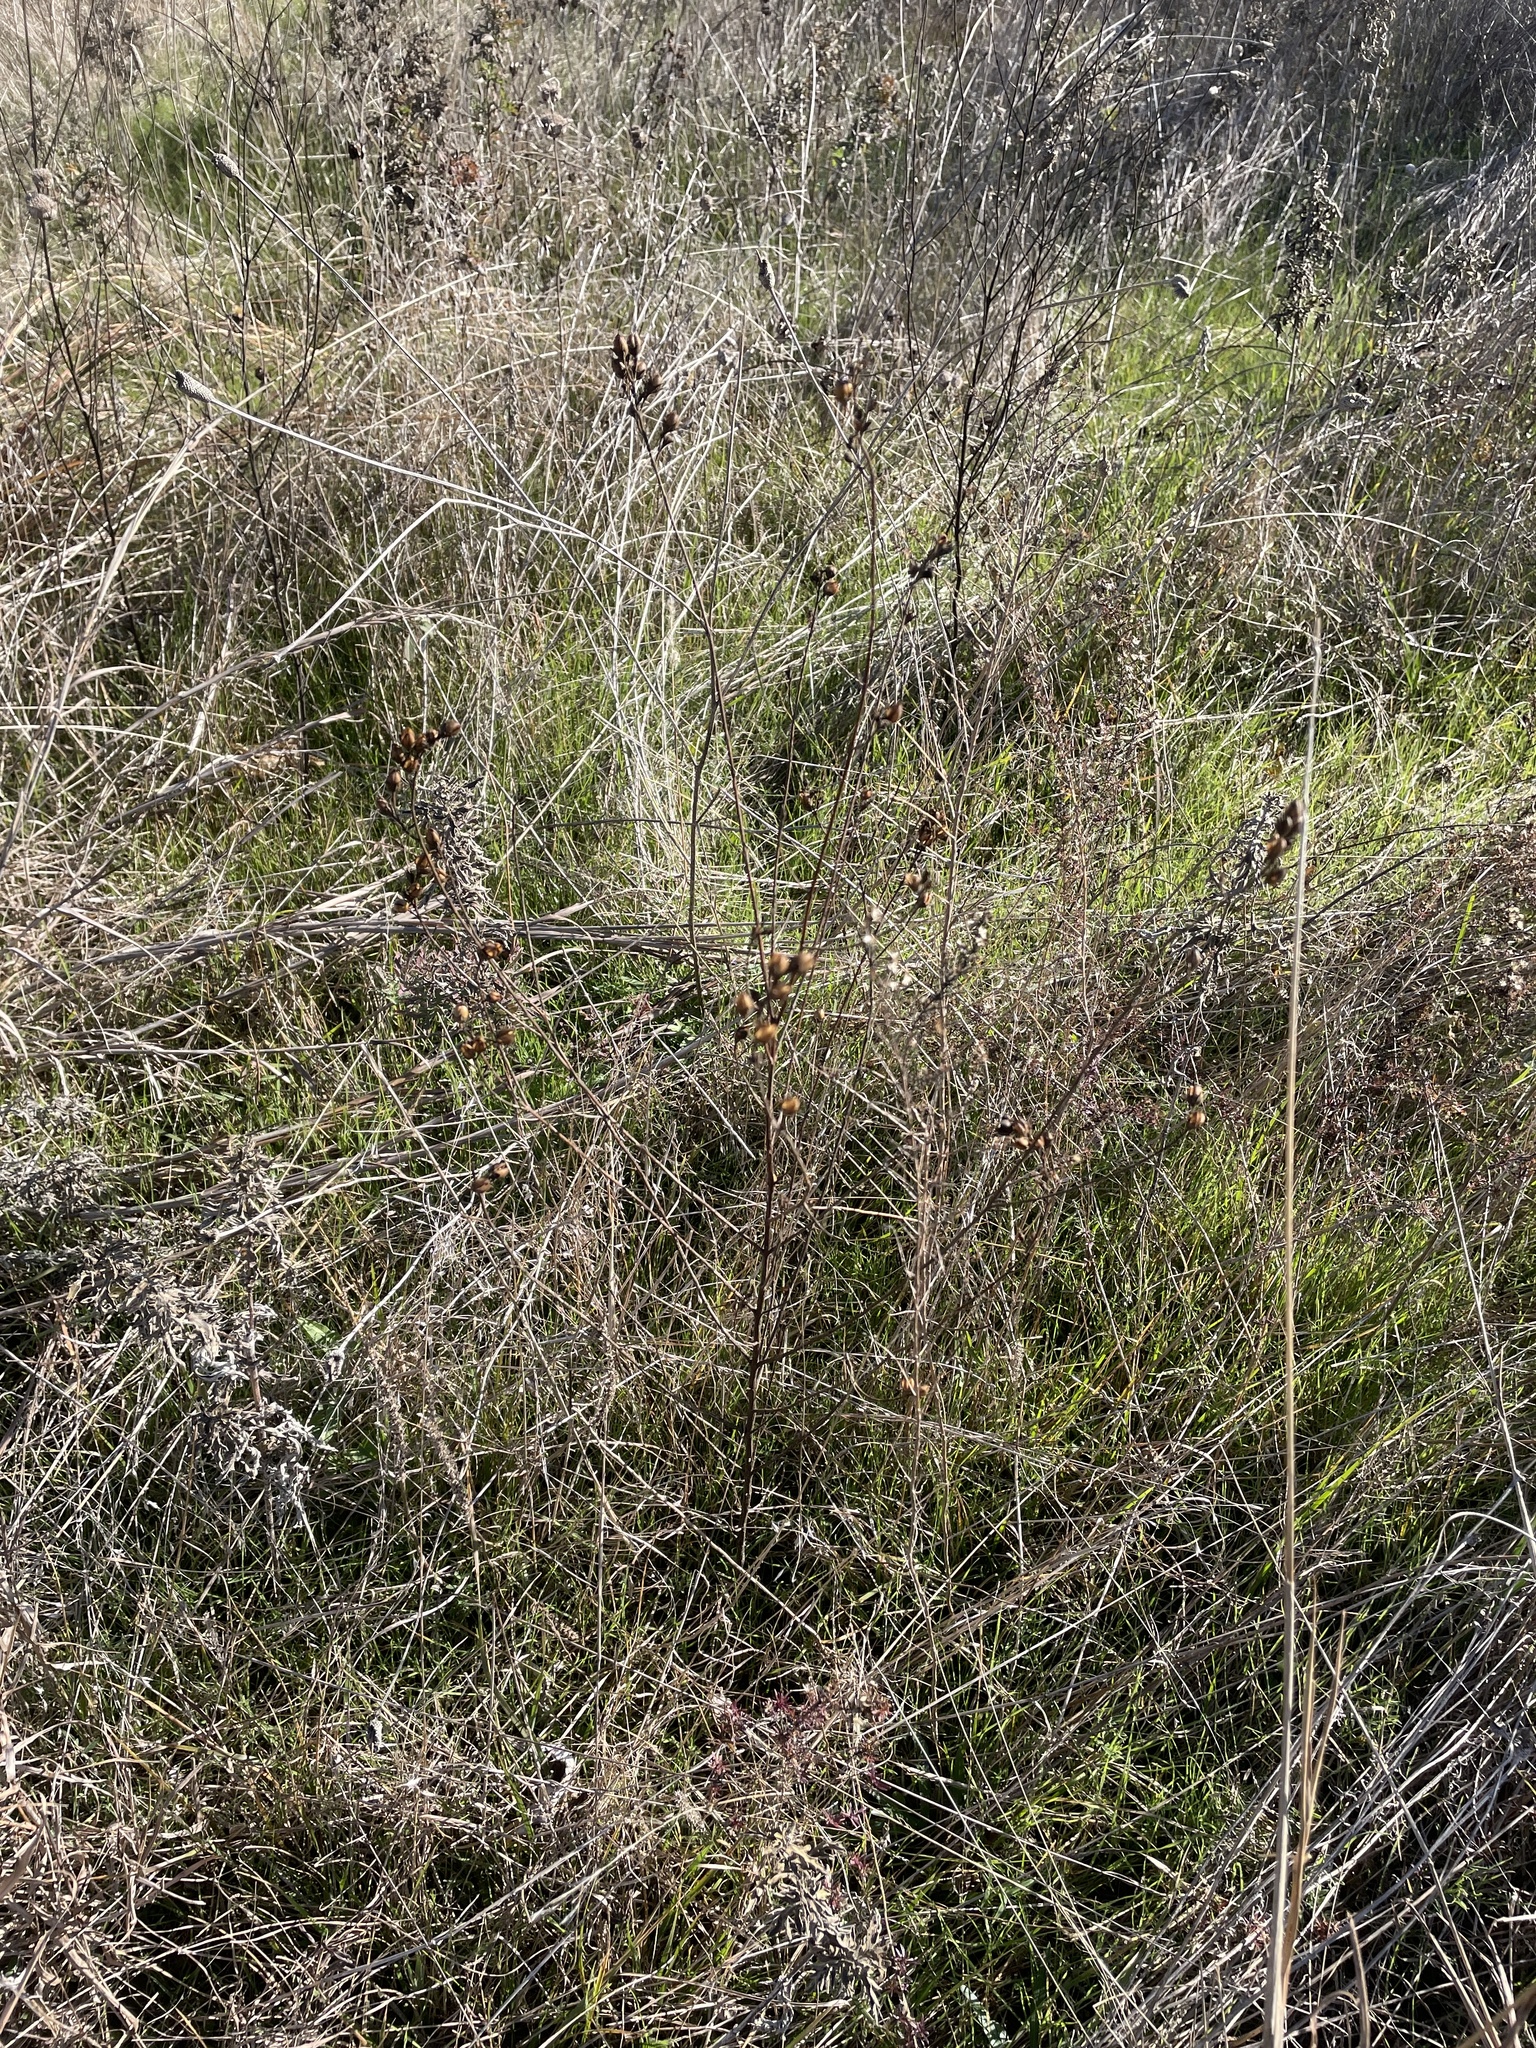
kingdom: Plantae
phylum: Tracheophyta
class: Magnoliopsida
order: Lamiales
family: Orobanchaceae
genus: Agalinis
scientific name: Agalinis heterophylla
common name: Prairie agalinis
